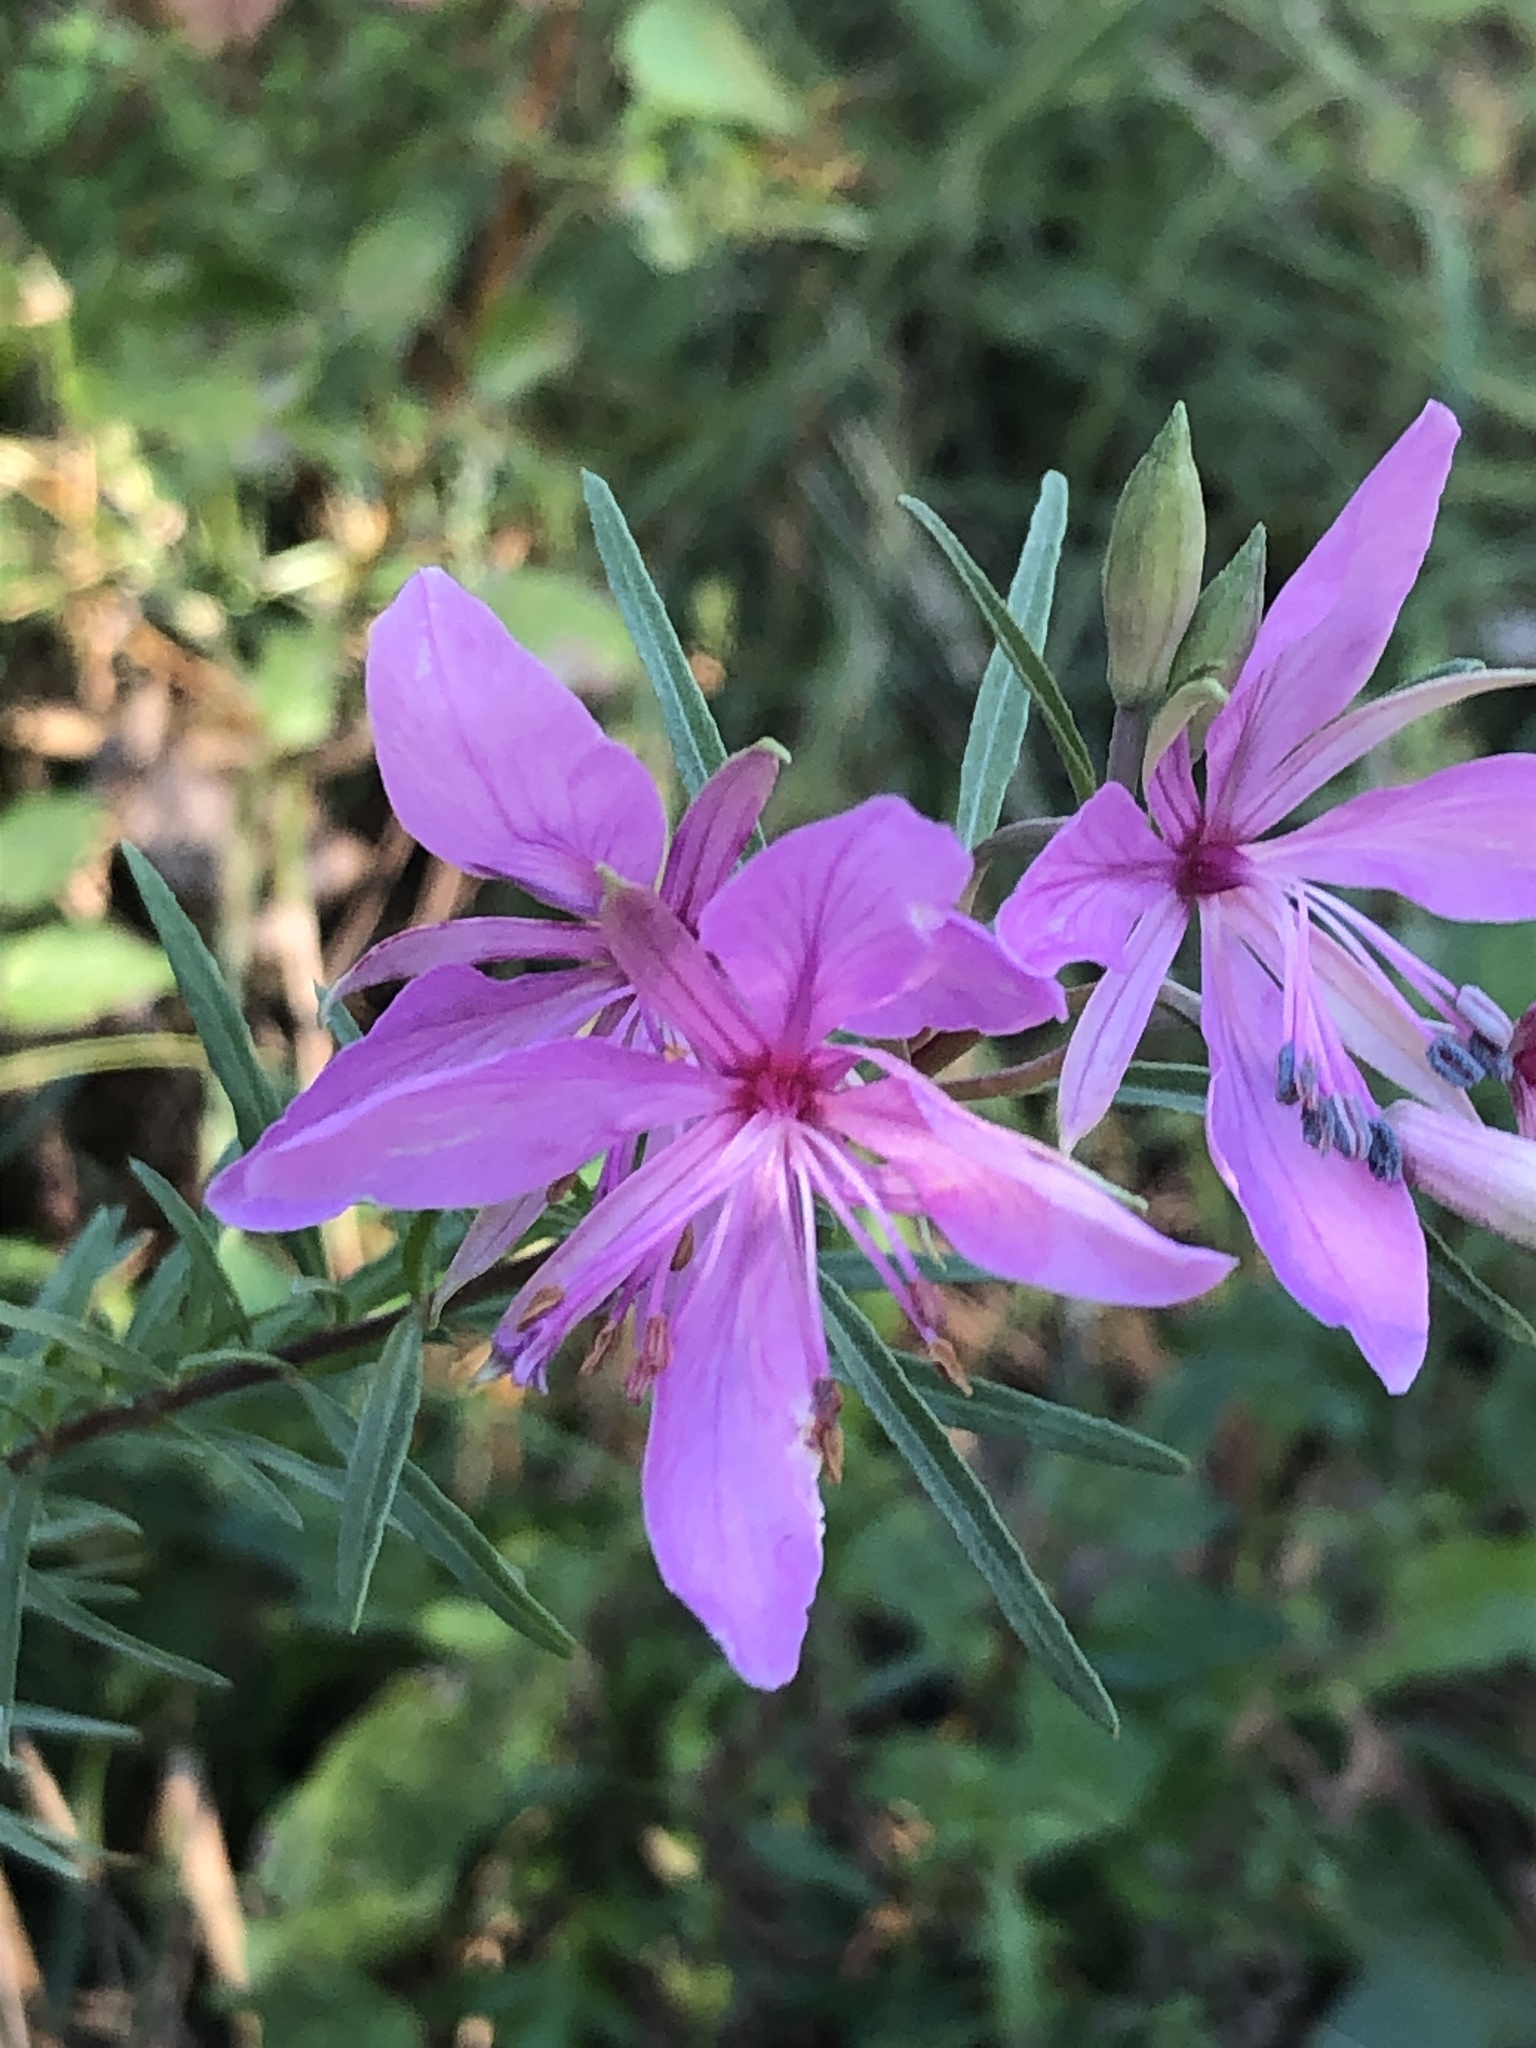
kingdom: Plantae
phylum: Tracheophyta
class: Magnoliopsida
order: Myrtales
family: Onagraceae
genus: Chamaenerion
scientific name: Chamaenerion dodonaei
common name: Rosemary-leaved willowherb
